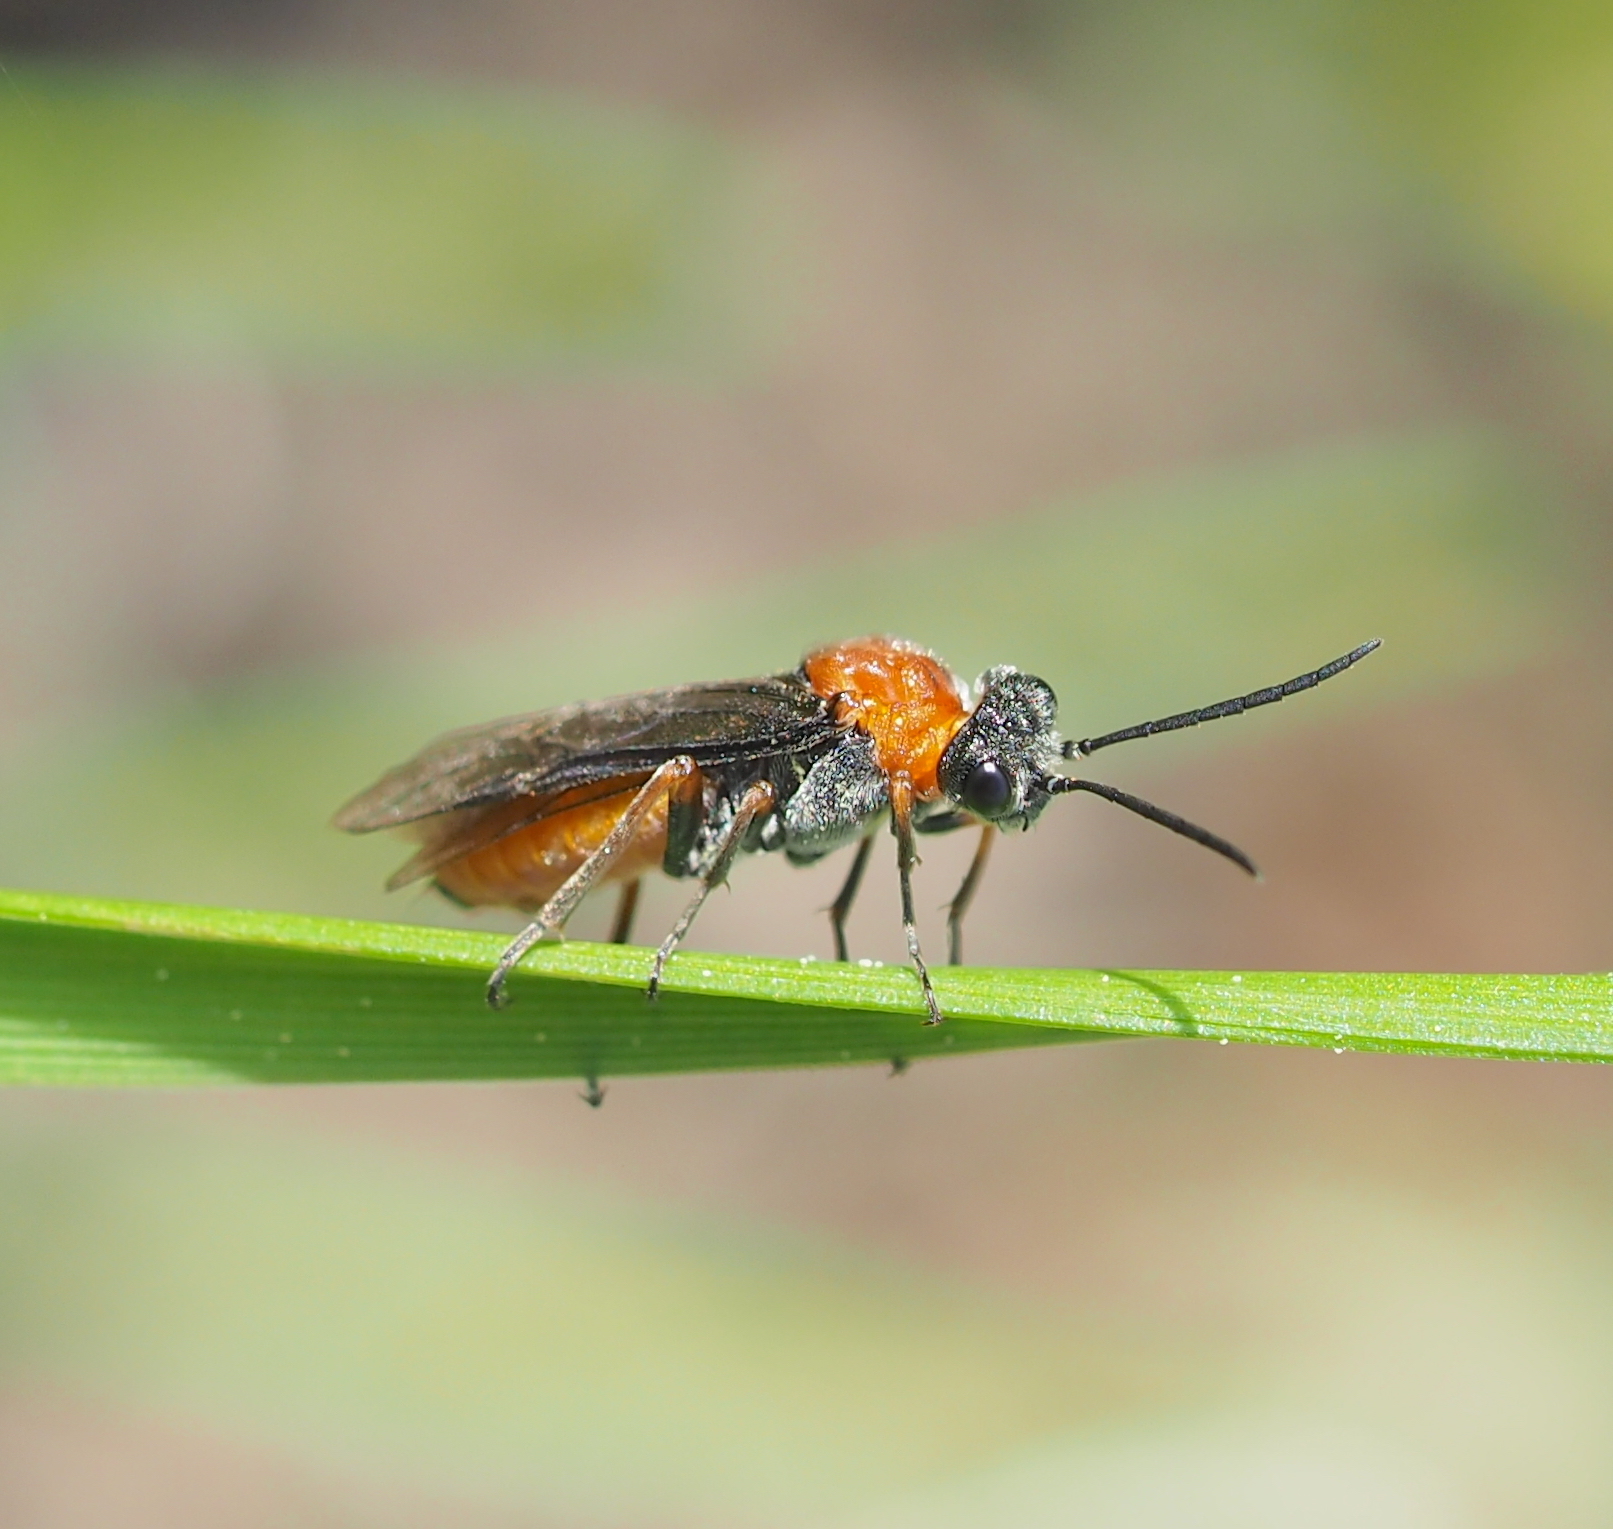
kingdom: Animalia
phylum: Arthropoda
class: Insecta
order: Hymenoptera
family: Tenthredinidae
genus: Dolerus
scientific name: Dolerus germanicus
